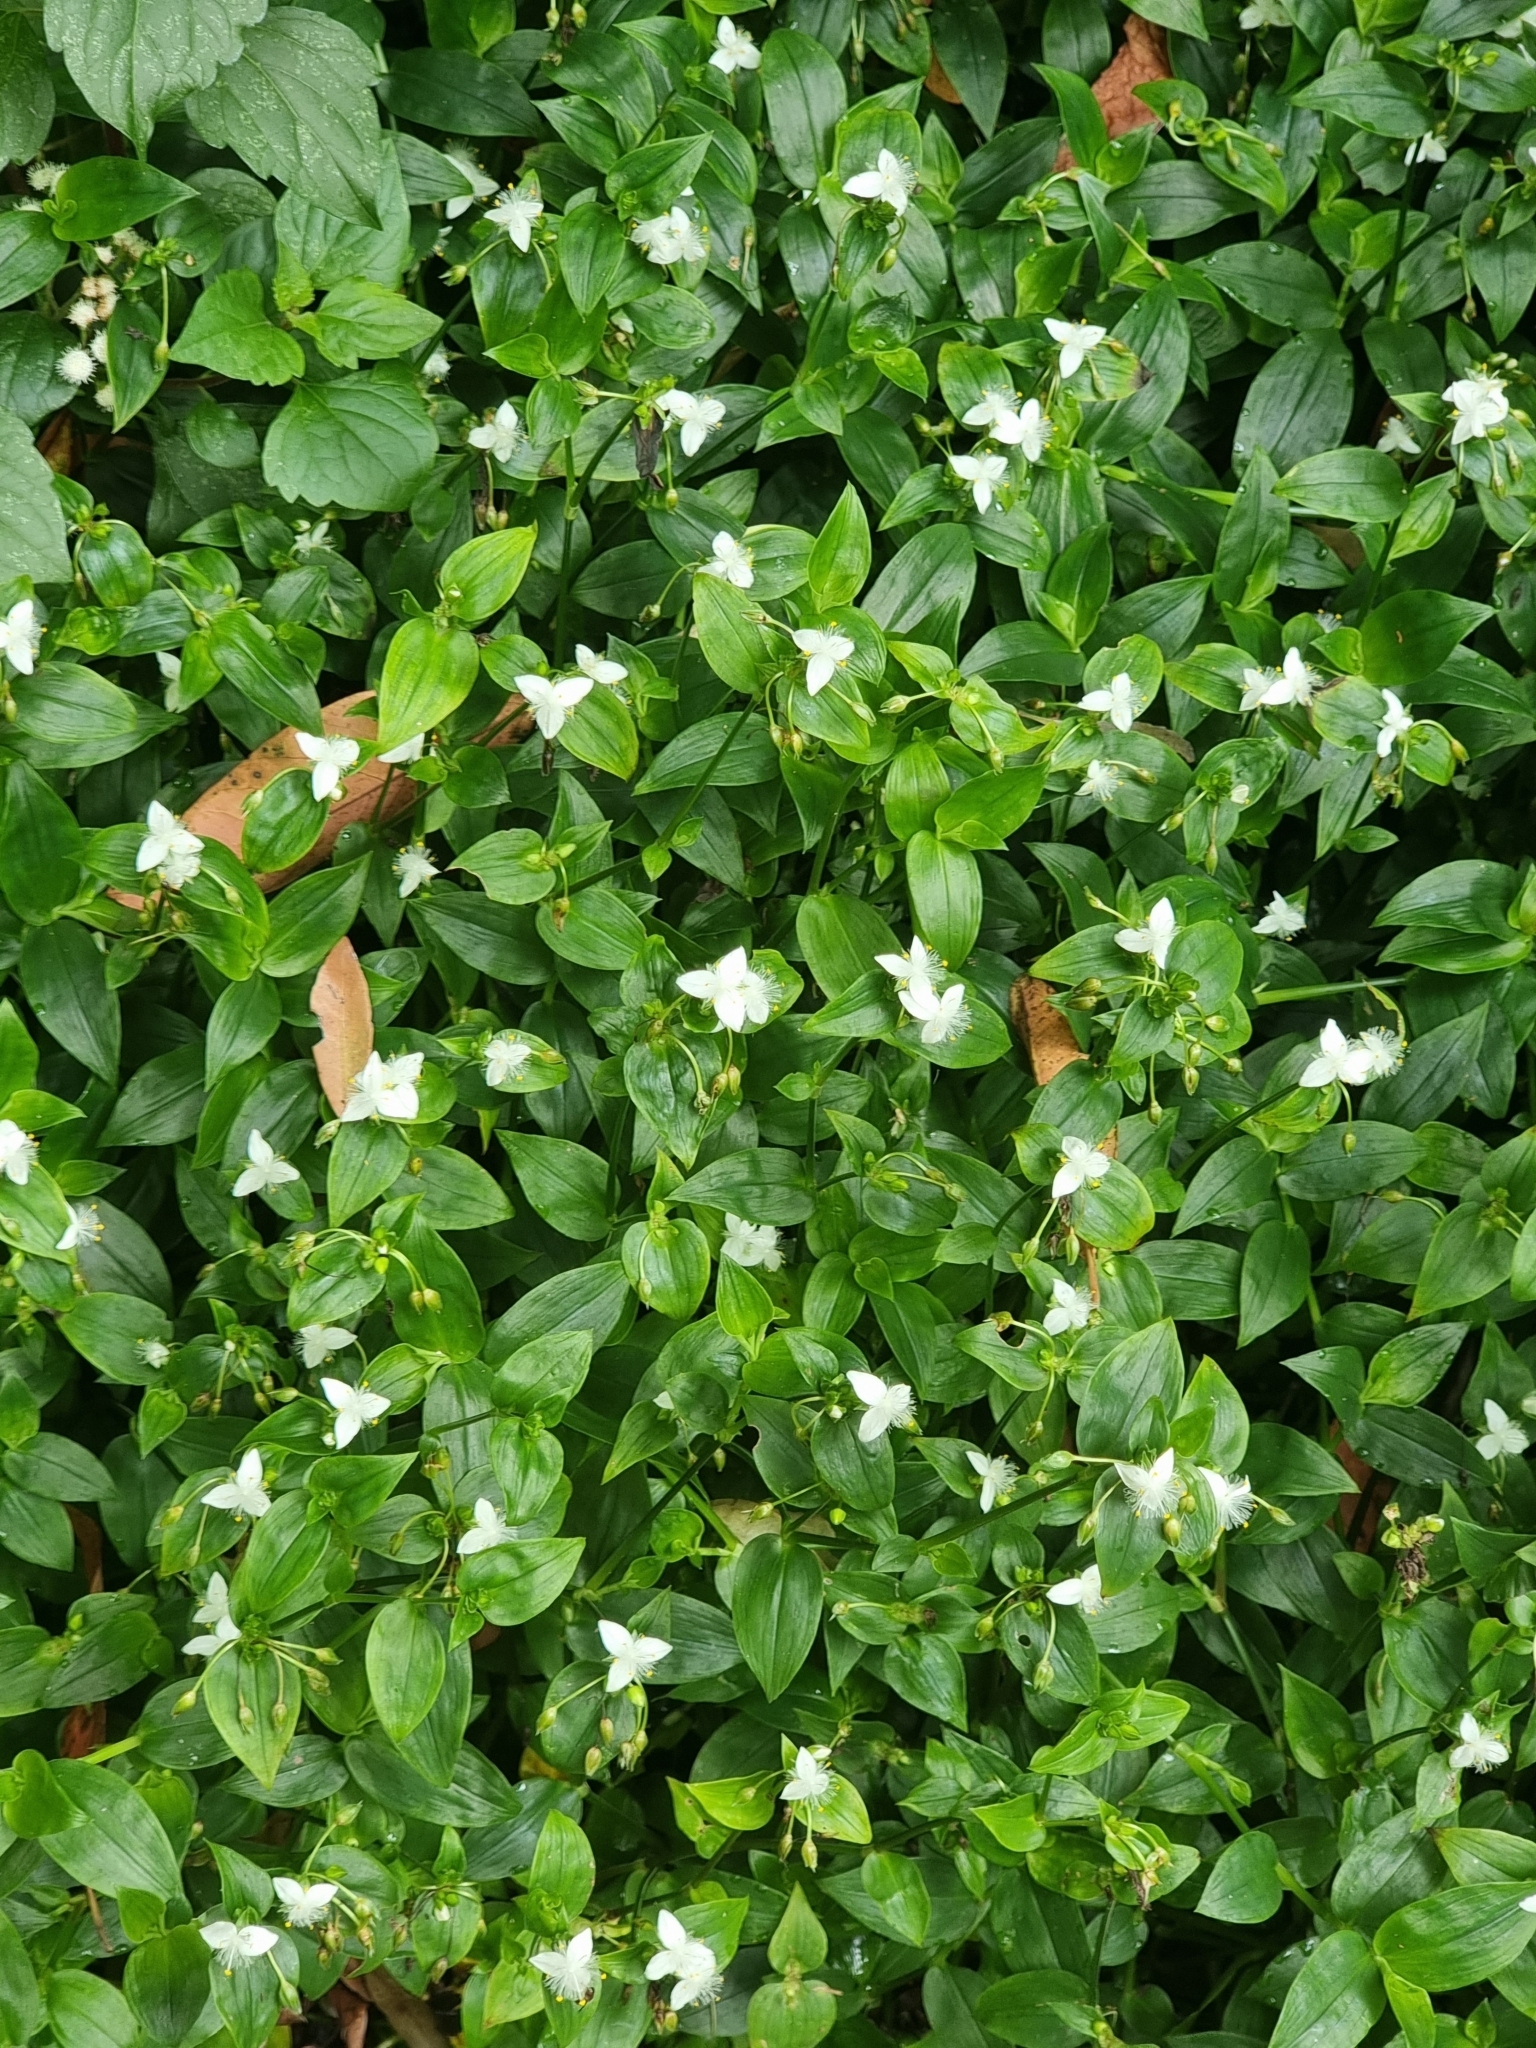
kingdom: Plantae
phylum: Tracheophyta
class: Liliopsida
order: Commelinales
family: Commelinaceae
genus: Tradescantia
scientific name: Tradescantia fluminensis
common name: Wandering-jew
